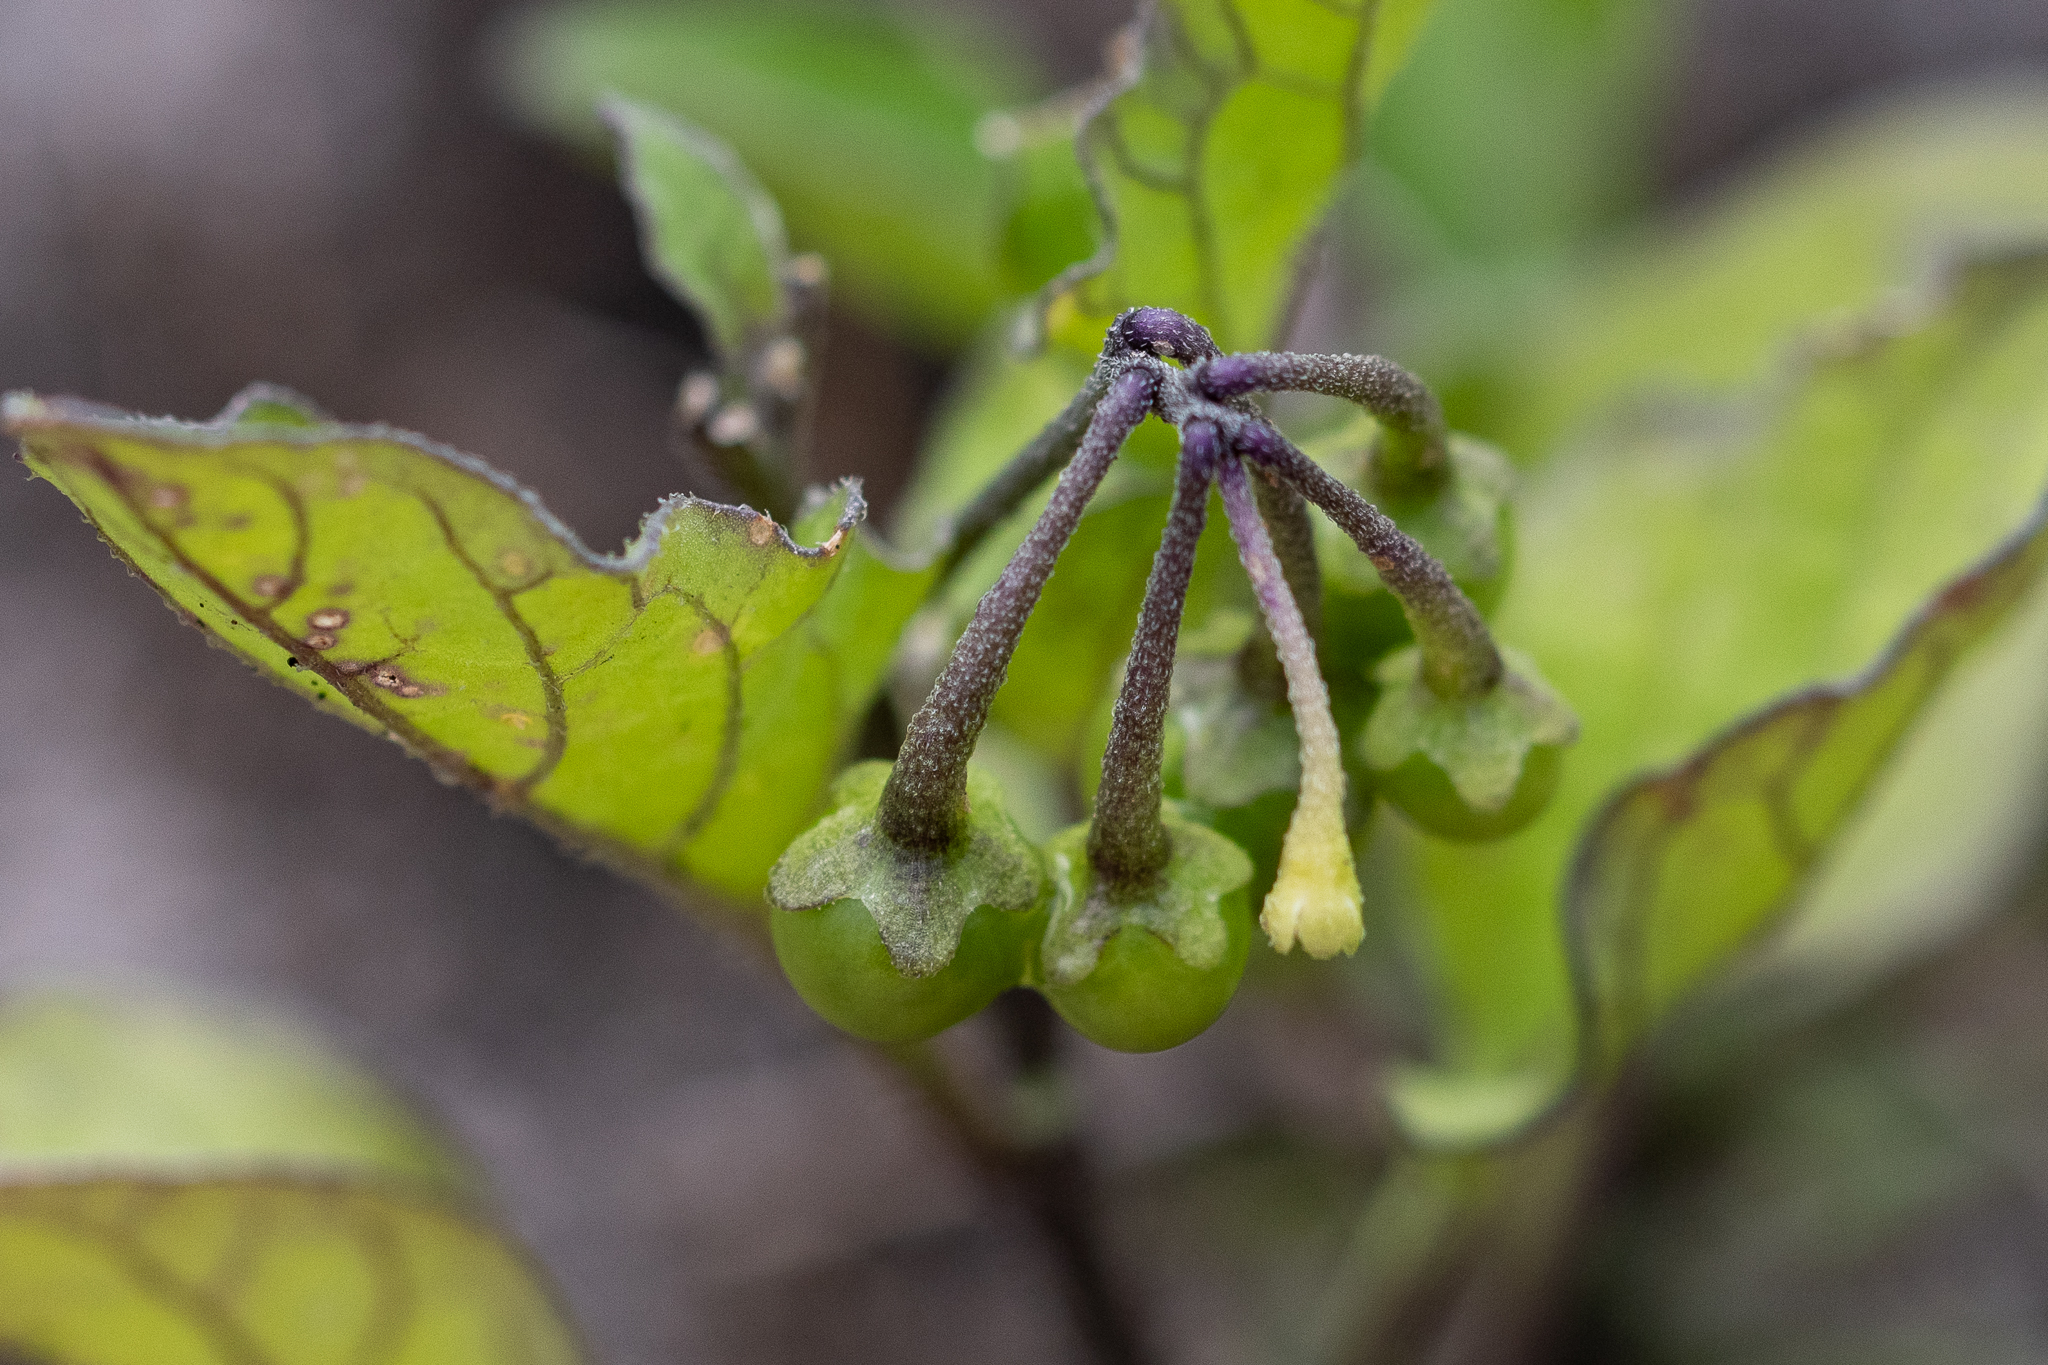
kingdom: Plantae
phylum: Tracheophyta
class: Magnoliopsida
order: Solanales
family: Solanaceae
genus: Solanum
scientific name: Solanum nigrum
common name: Black nightshade
